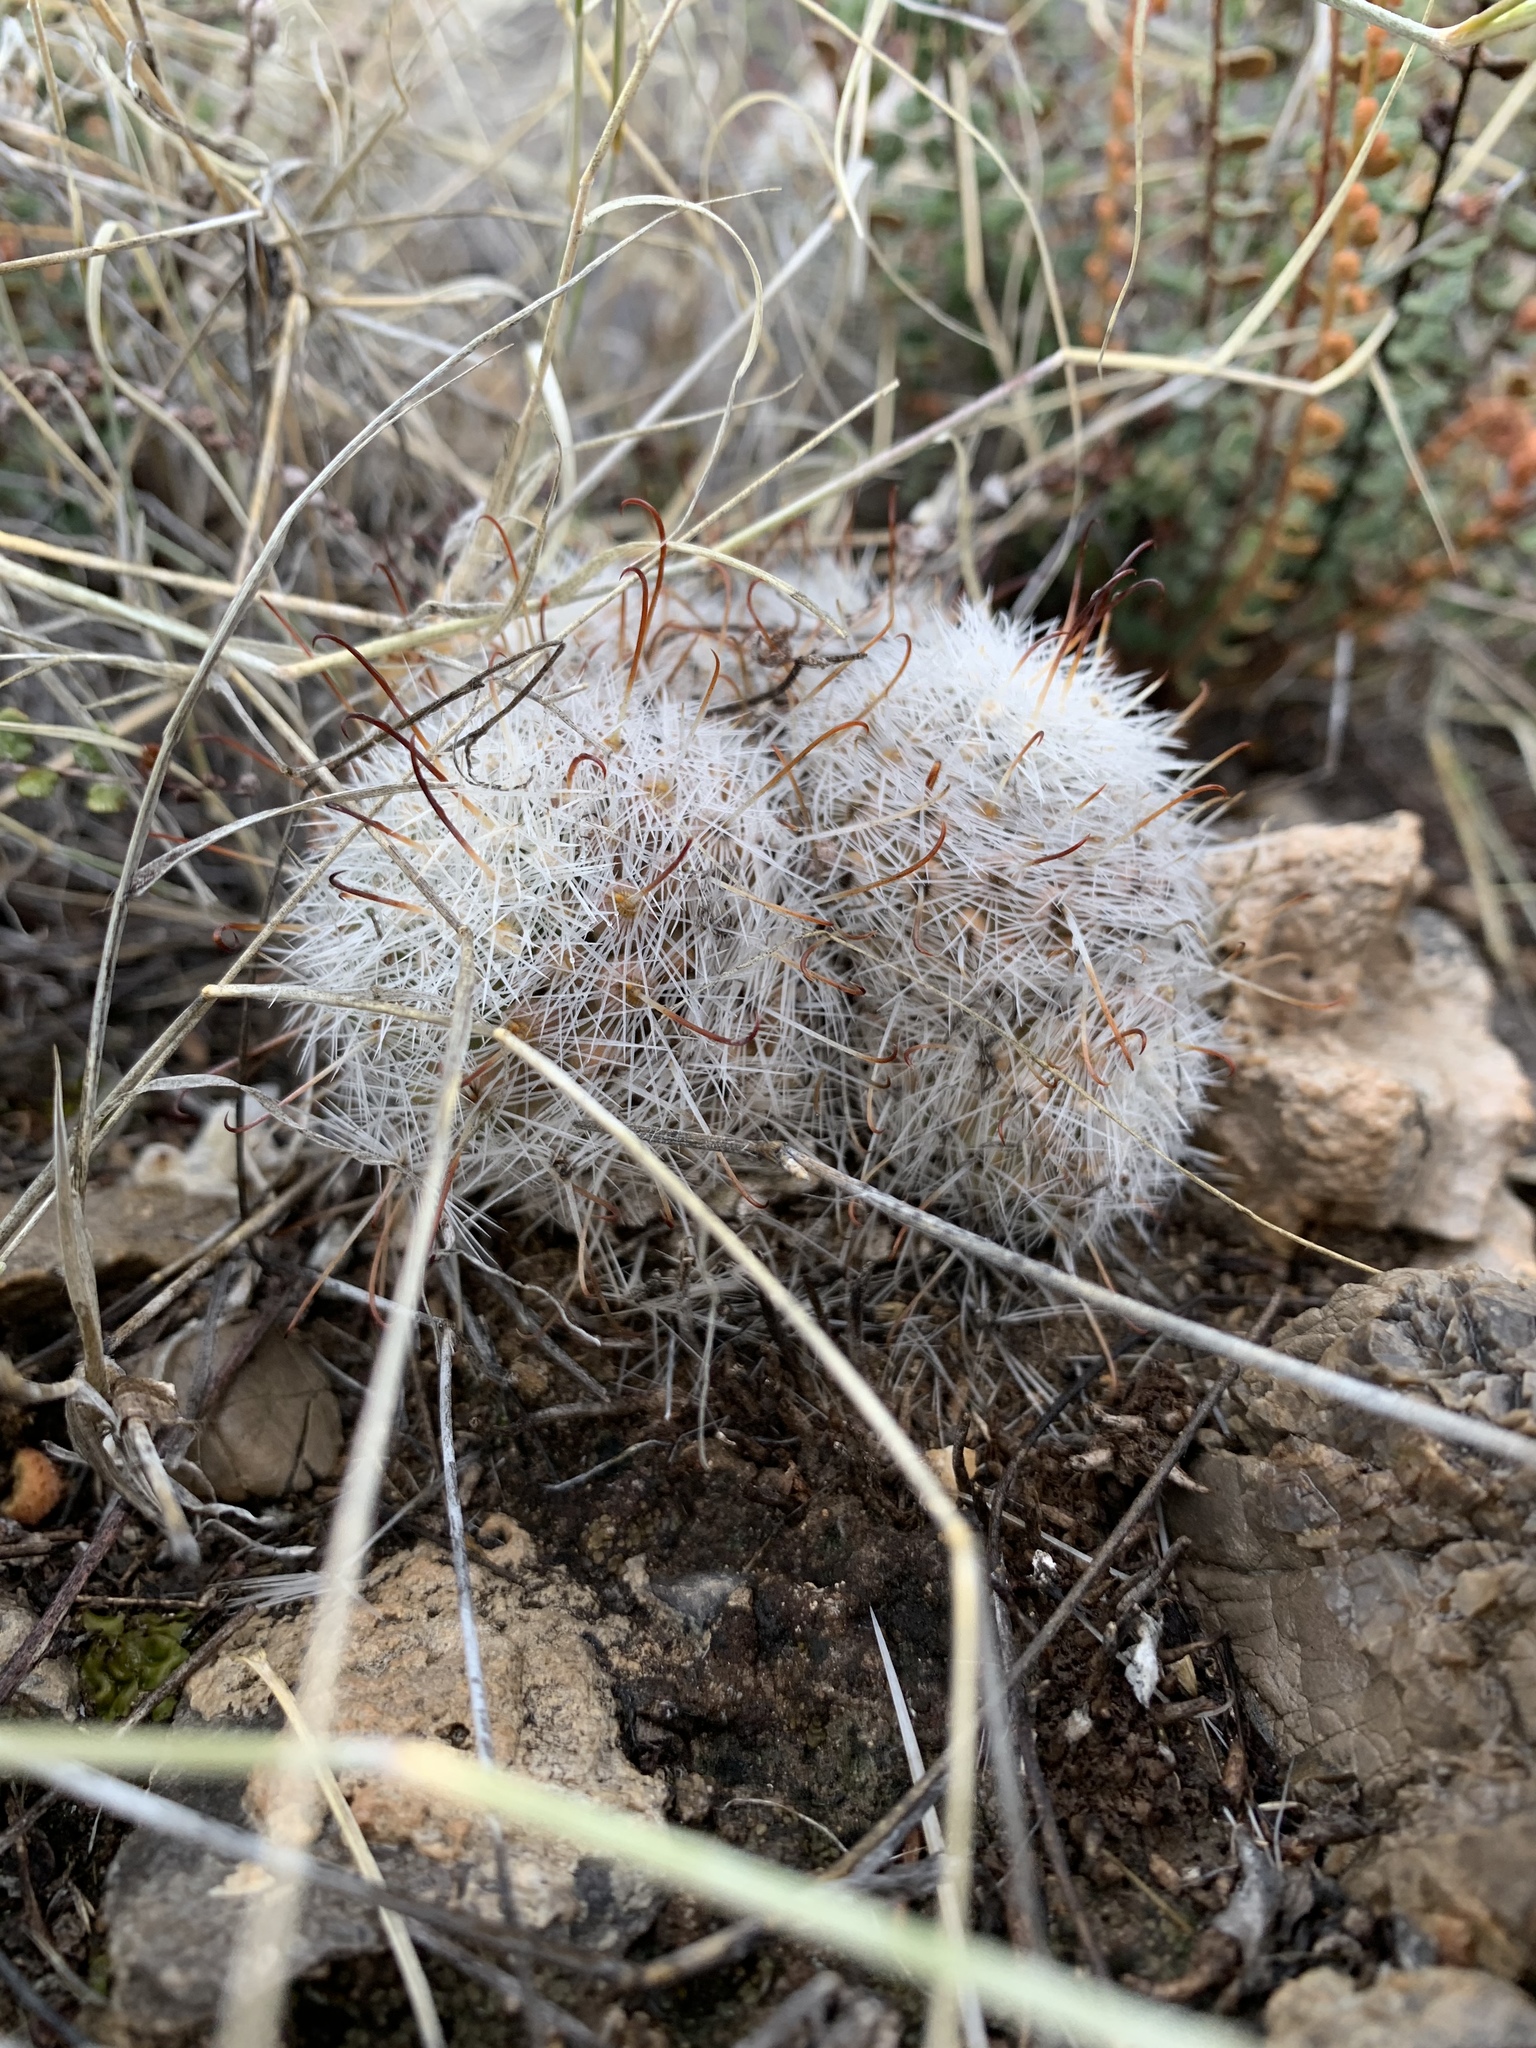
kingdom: Plantae
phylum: Tracheophyta
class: Magnoliopsida
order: Caryophyllales
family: Cactaceae
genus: Cochemiea
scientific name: Cochemiea grahamii
